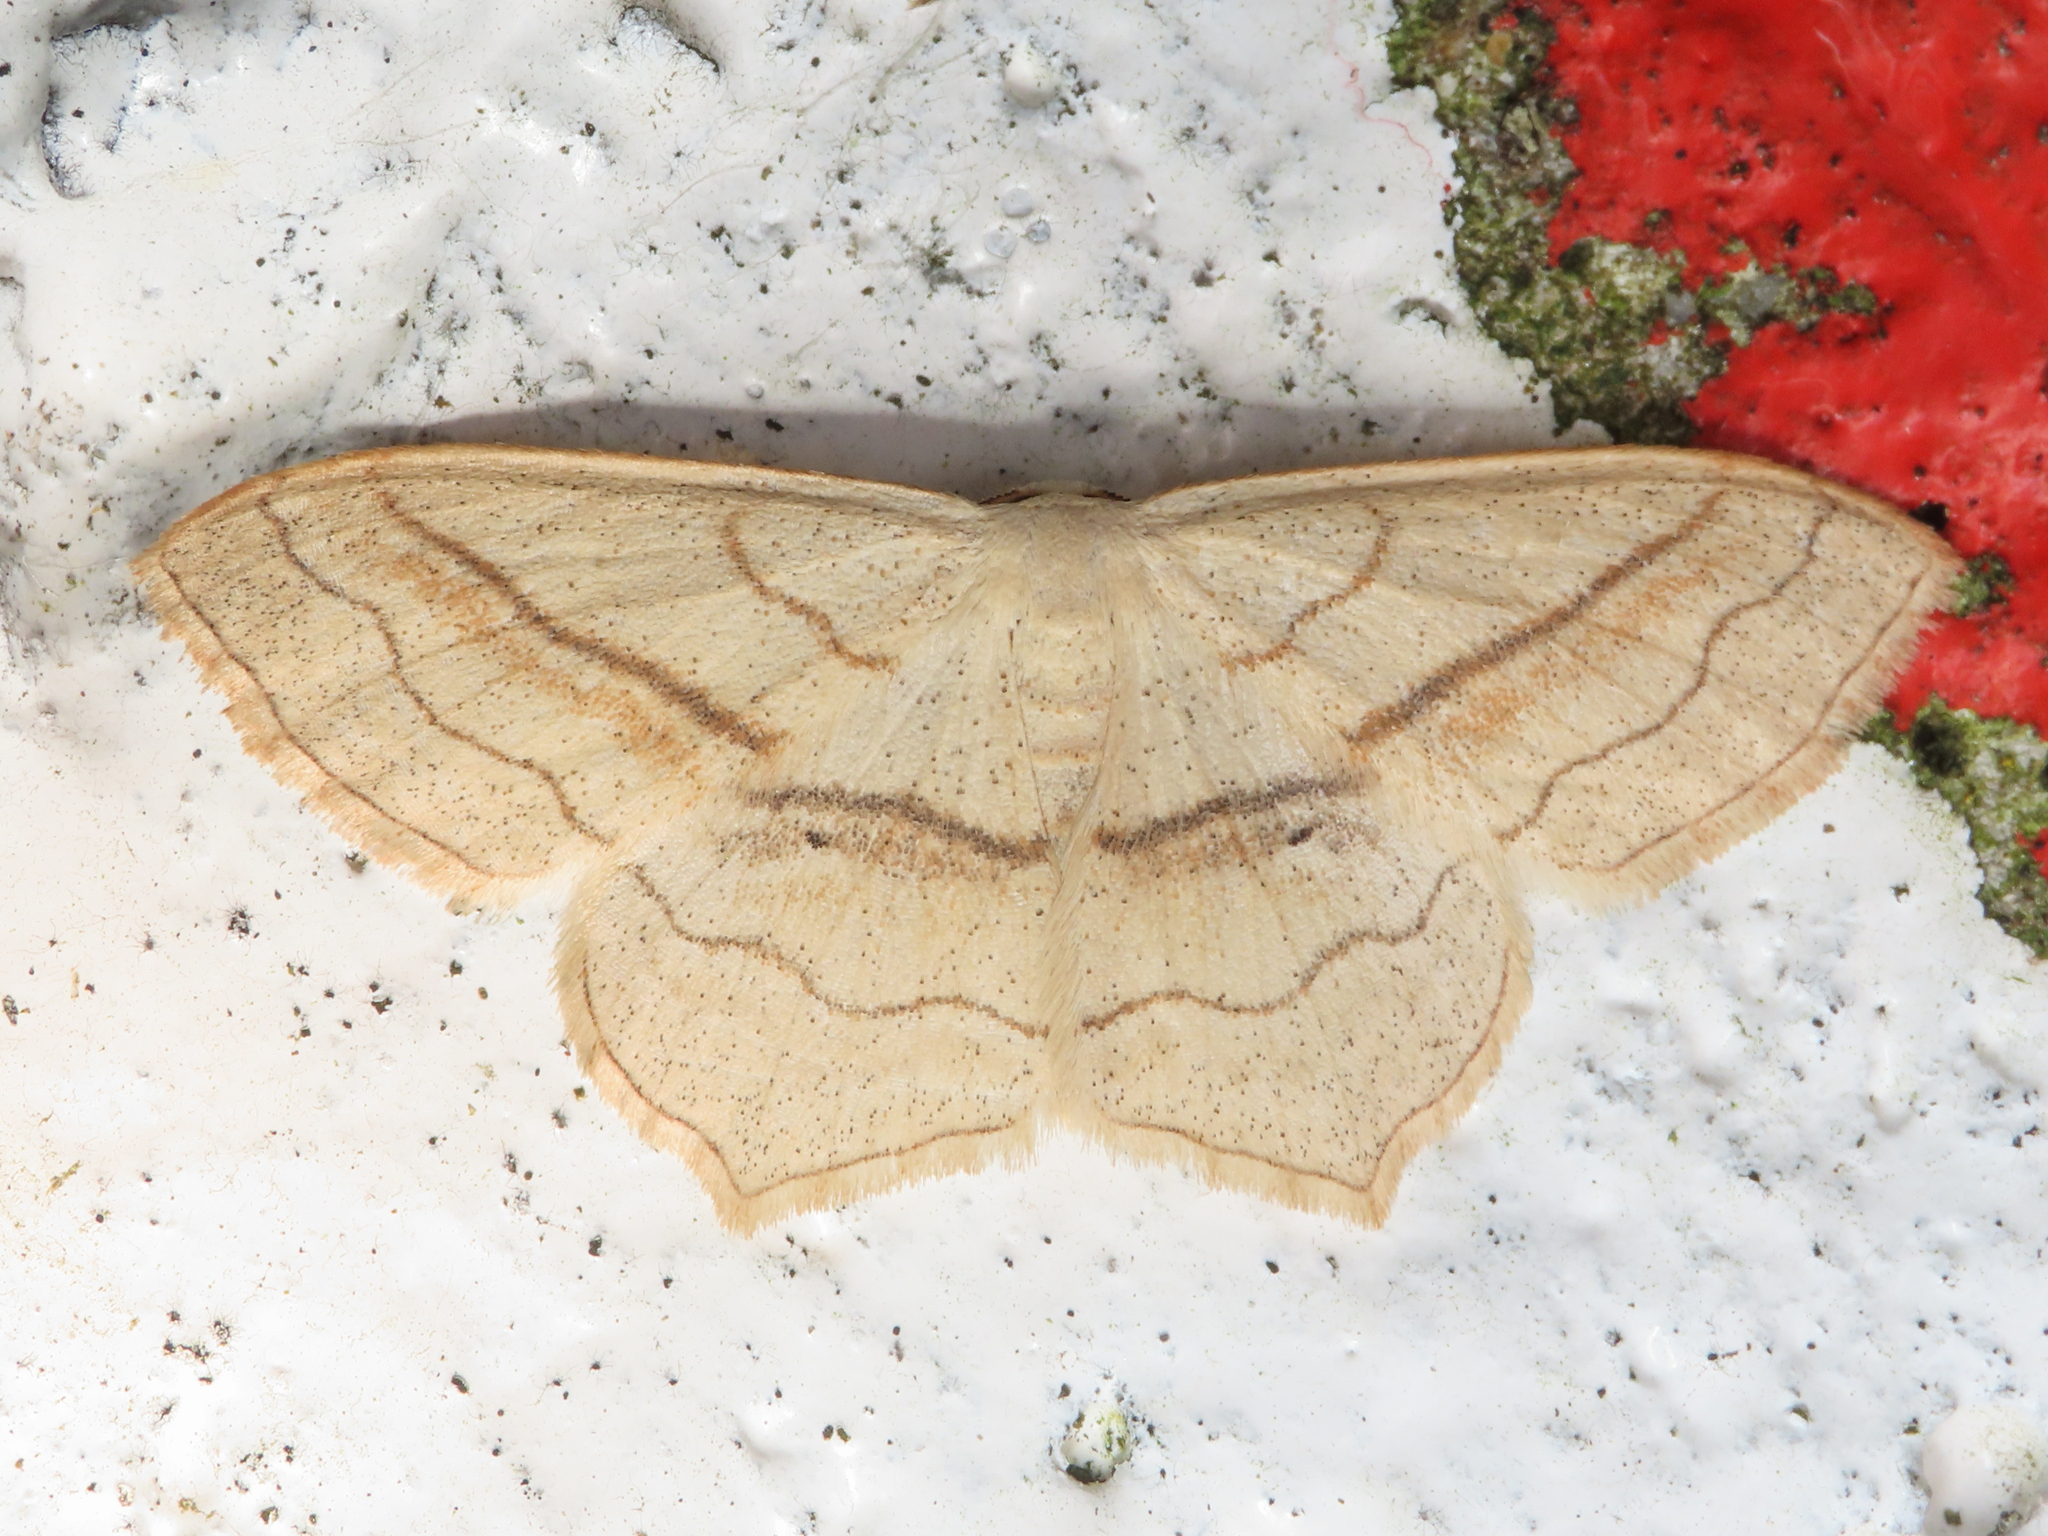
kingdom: Animalia
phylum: Arthropoda
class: Insecta
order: Lepidoptera
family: Geometridae
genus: Scopula
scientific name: Scopula imitaria
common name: Small blood-vein
